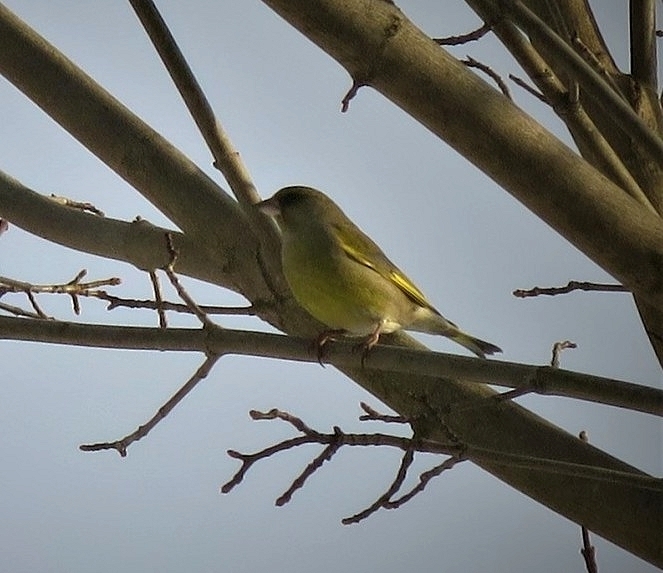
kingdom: Plantae
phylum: Tracheophyta
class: Liliopsida
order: Poales
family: Poaceae
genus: Chloris
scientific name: Chloris chloris
